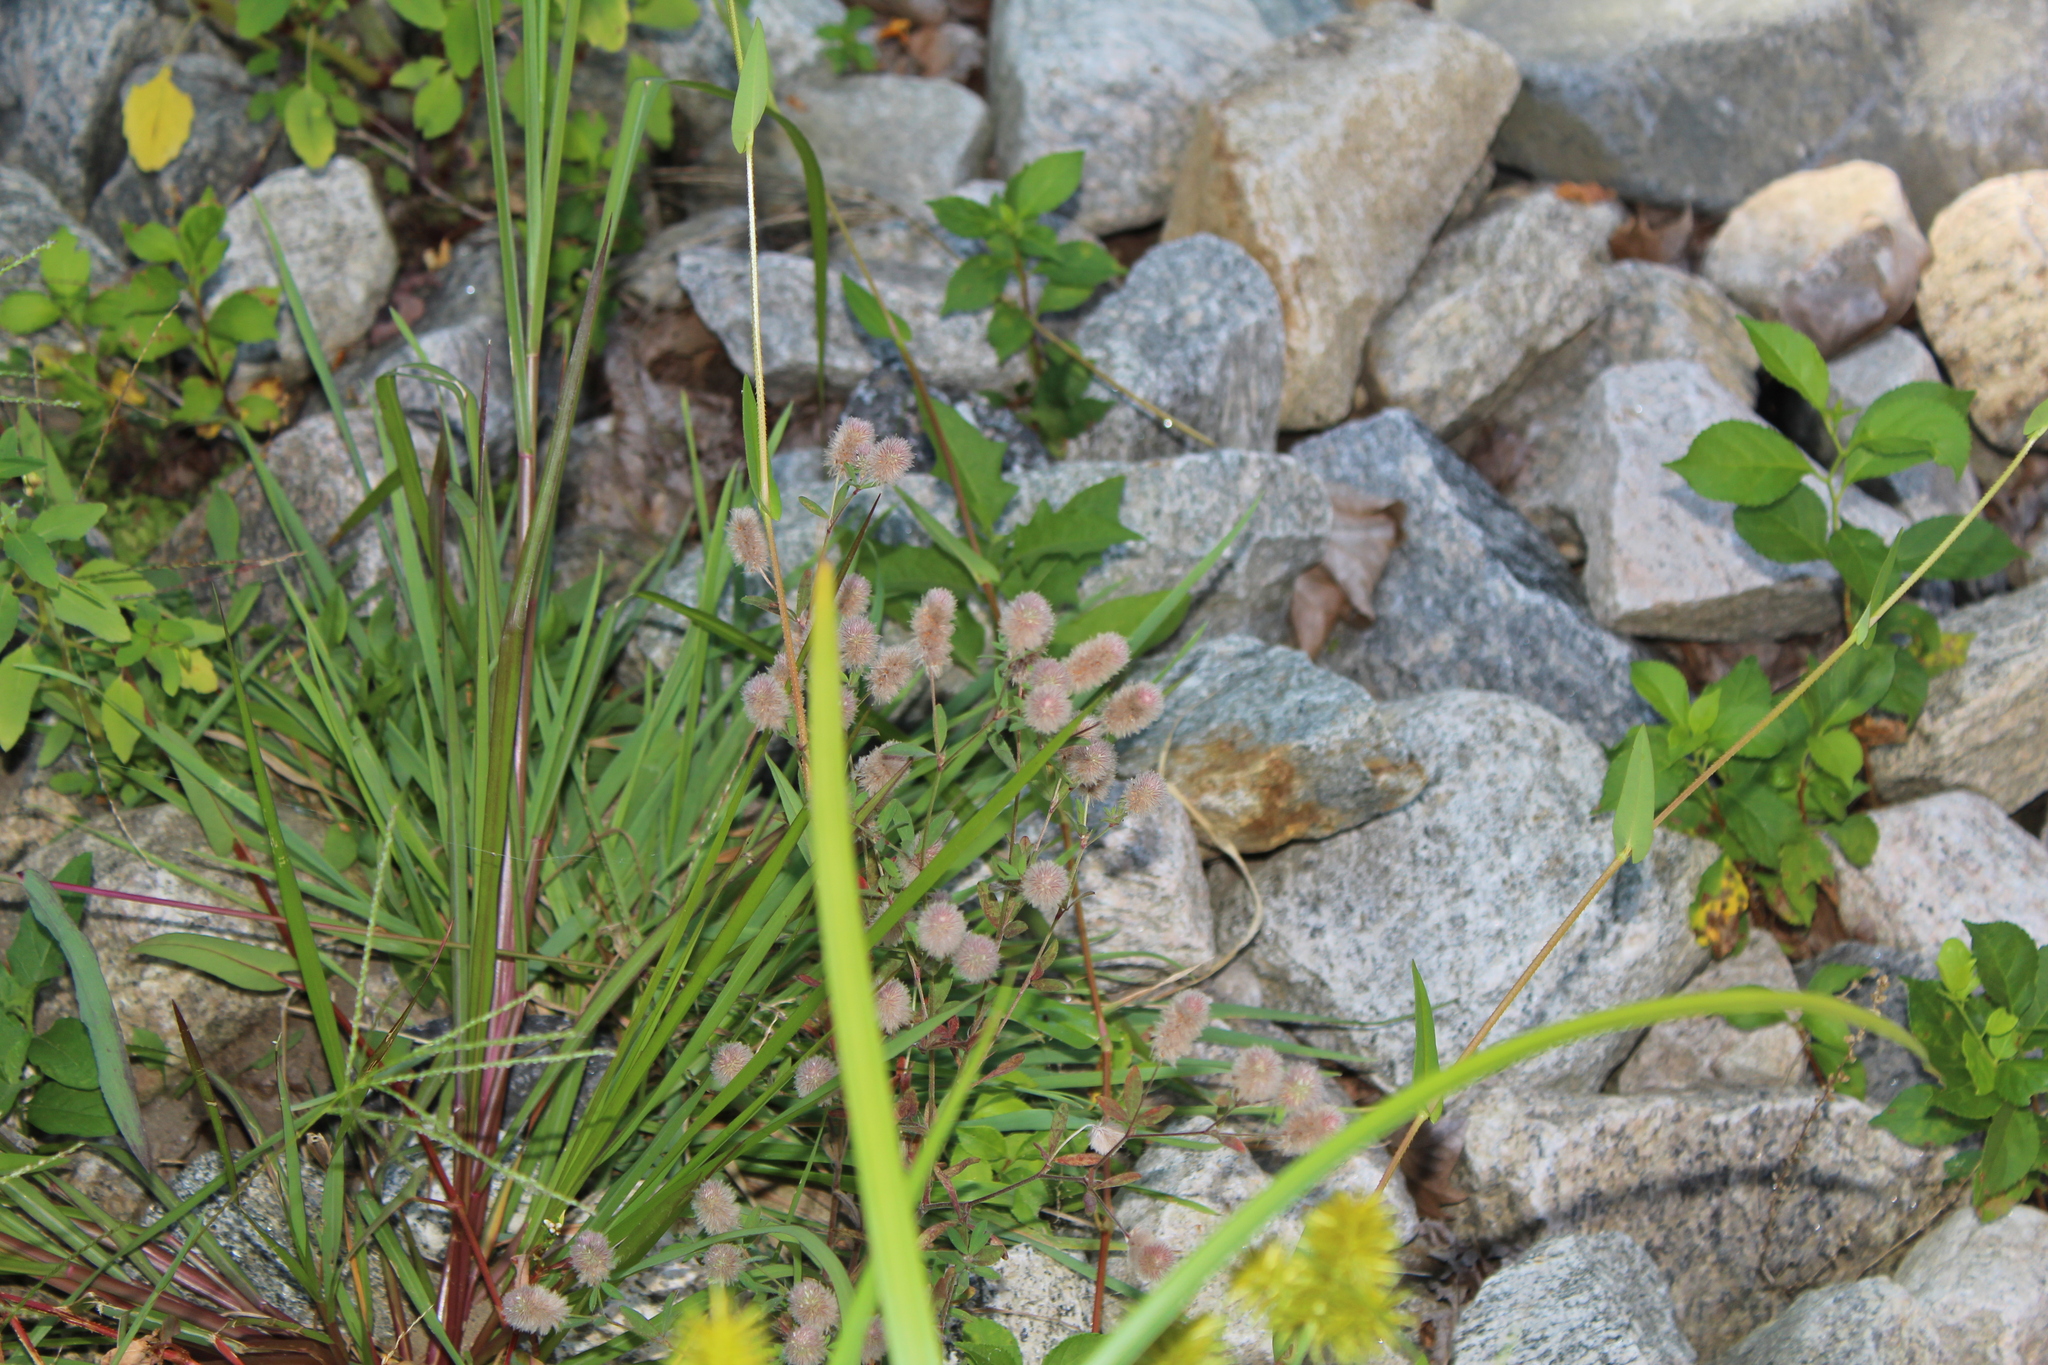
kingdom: Plantae
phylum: Tracheophyta
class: Magnoliopsida
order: Fabales
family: Fabaceae
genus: Trifolium
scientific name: Trifolium arvense
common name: Hare's-foot clover
